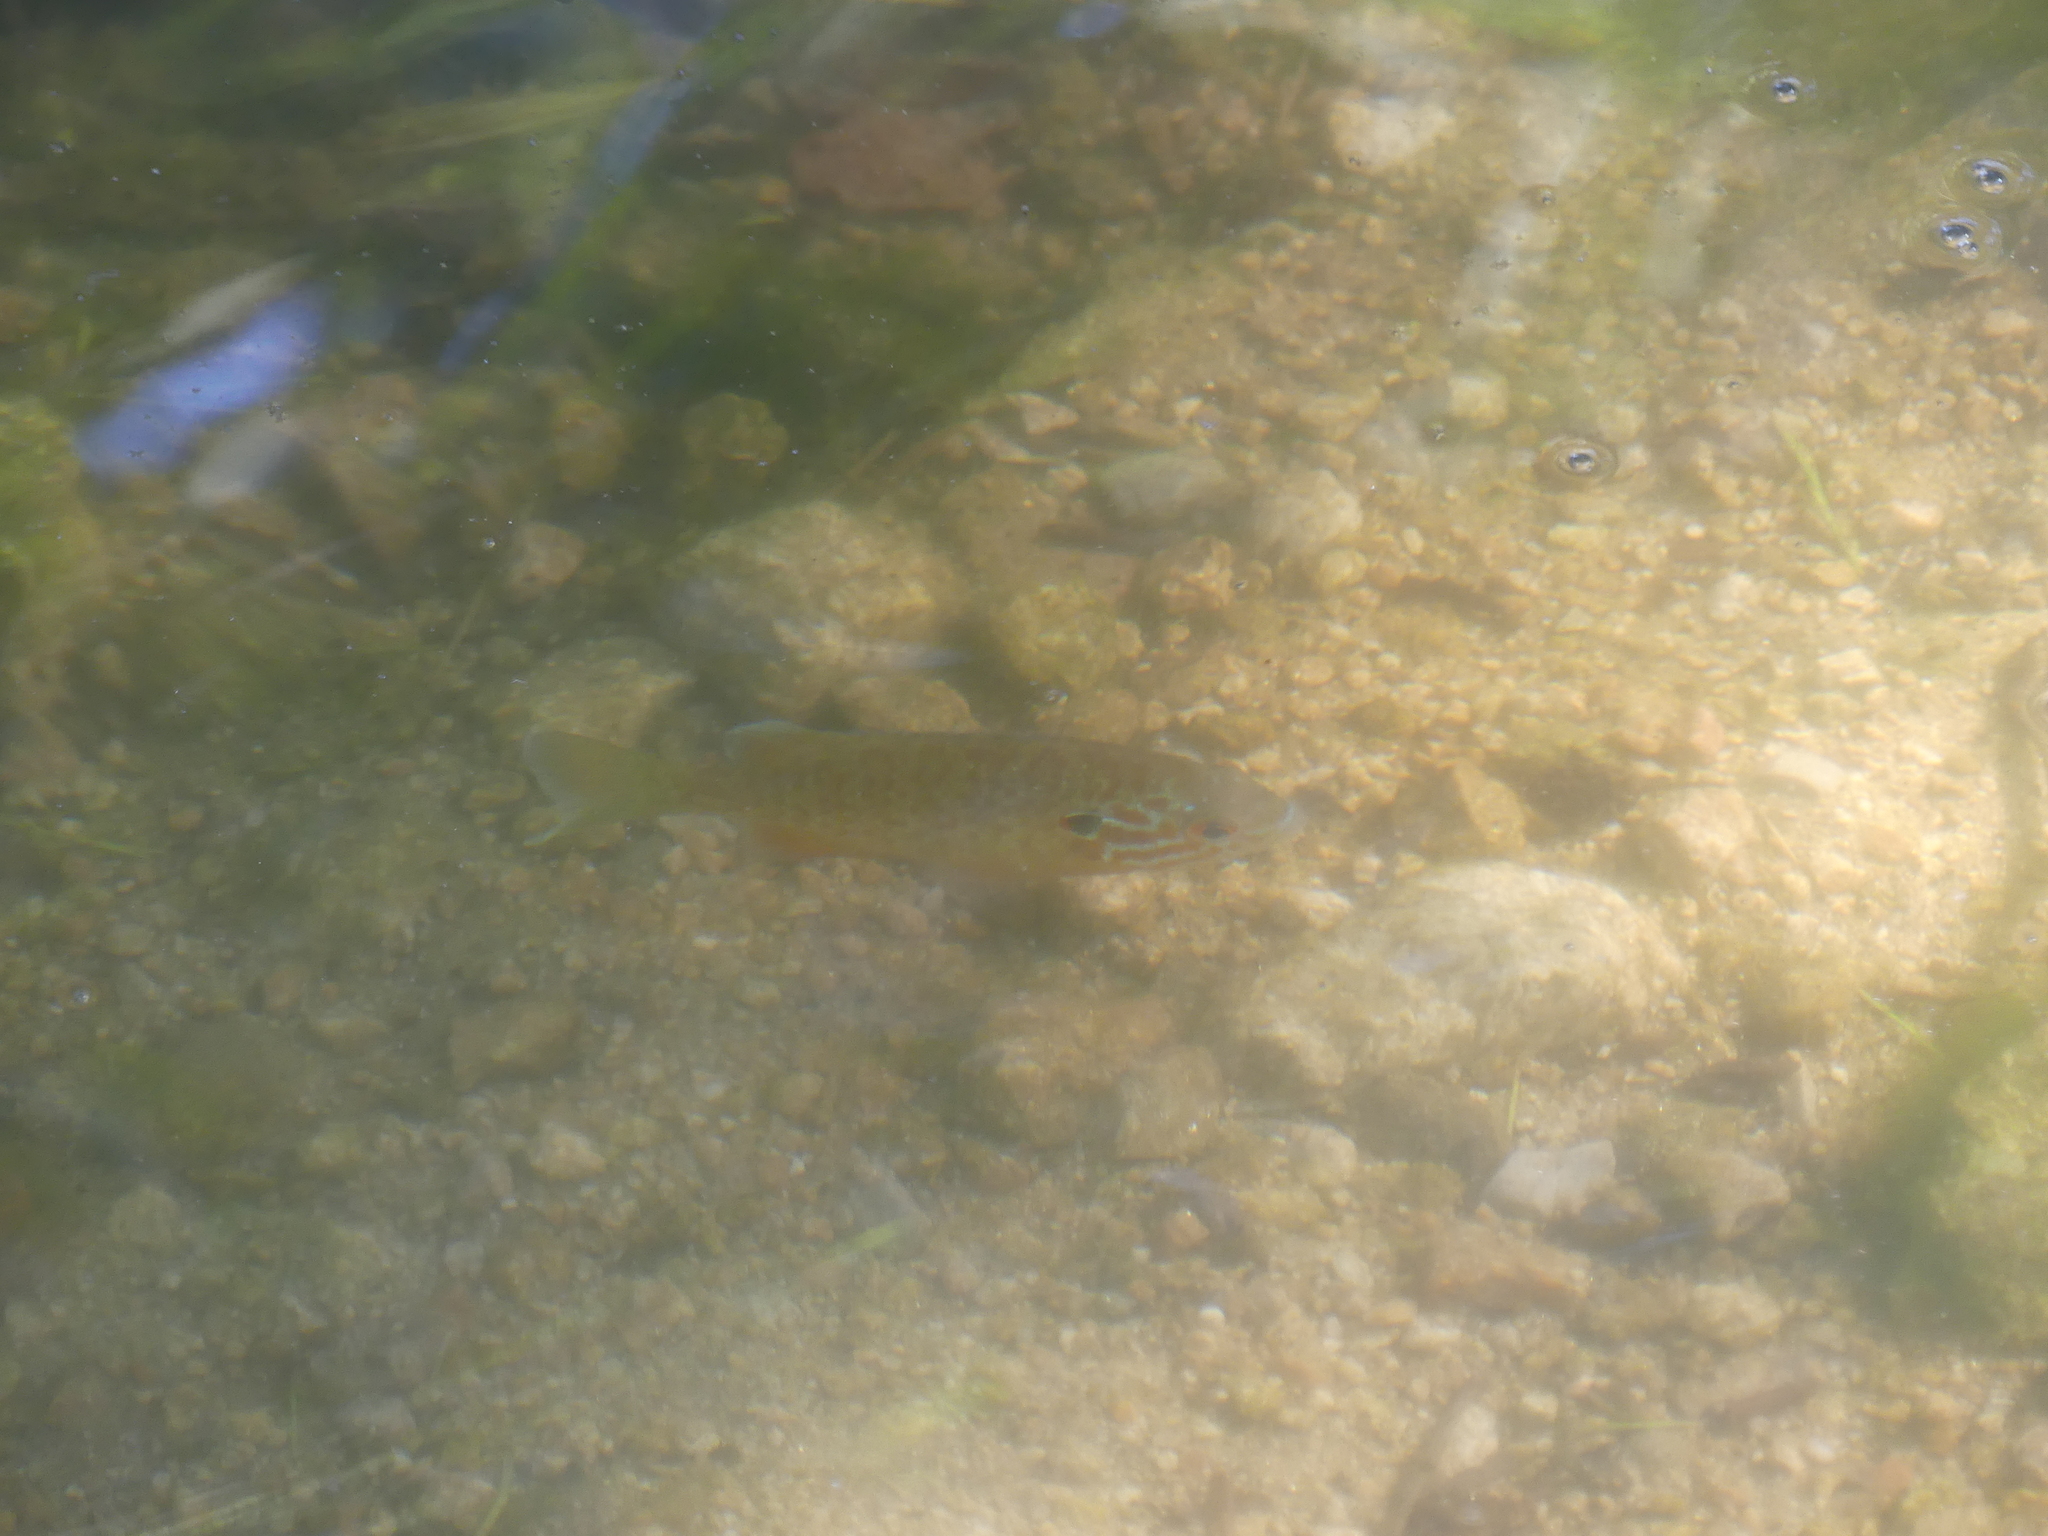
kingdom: Animalia
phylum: Chordata
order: Perciformes
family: Centrarchidae
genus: Lepomis
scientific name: Lepomis gibbosus
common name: Pumpkinseed
